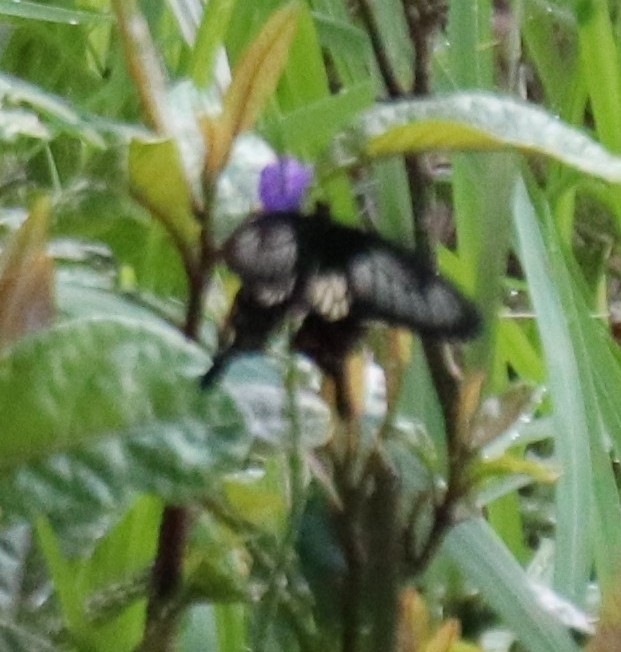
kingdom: Animalia
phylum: Arthropoda
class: Insecta
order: Lepidoptera
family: Papilionidae
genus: Pachliopta
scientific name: Pachliopta polyphontes
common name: Sulawesi rose
